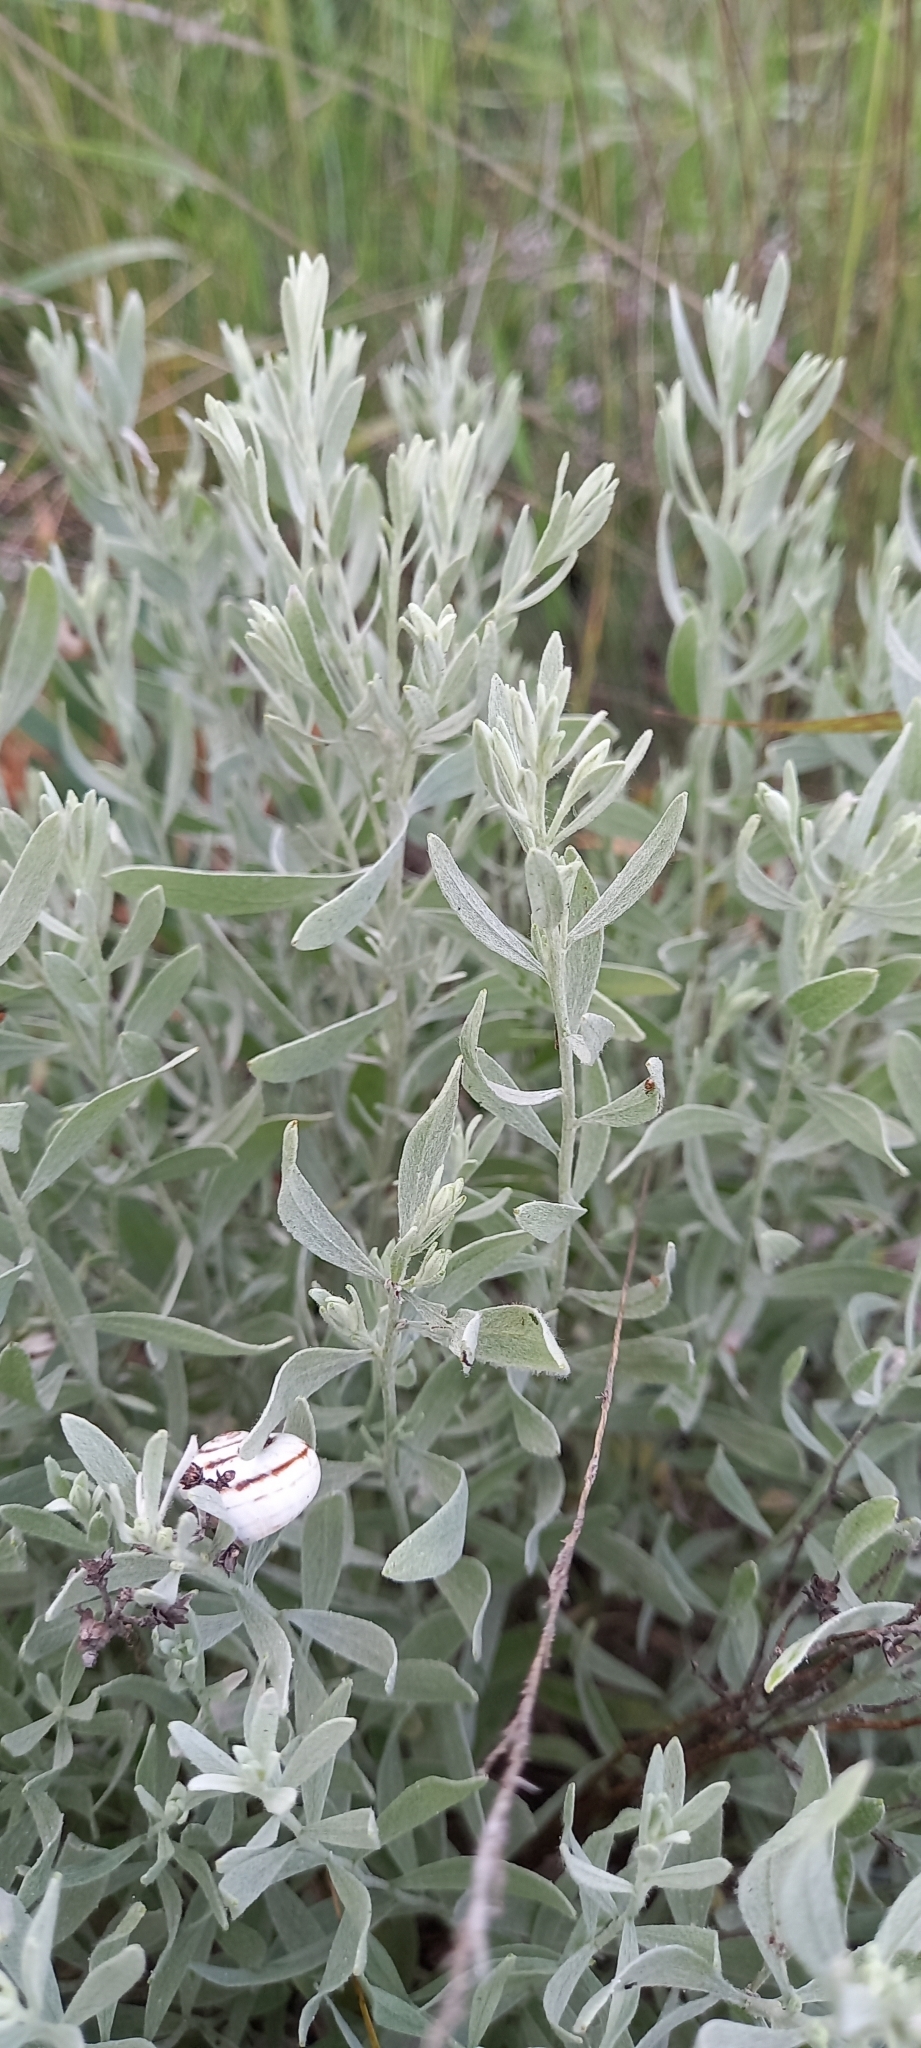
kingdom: Plantae
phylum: Tracheophyta
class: Magnoliopsida
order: Asterales
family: Asteraceae
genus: Galatella
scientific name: Galatella villosa
